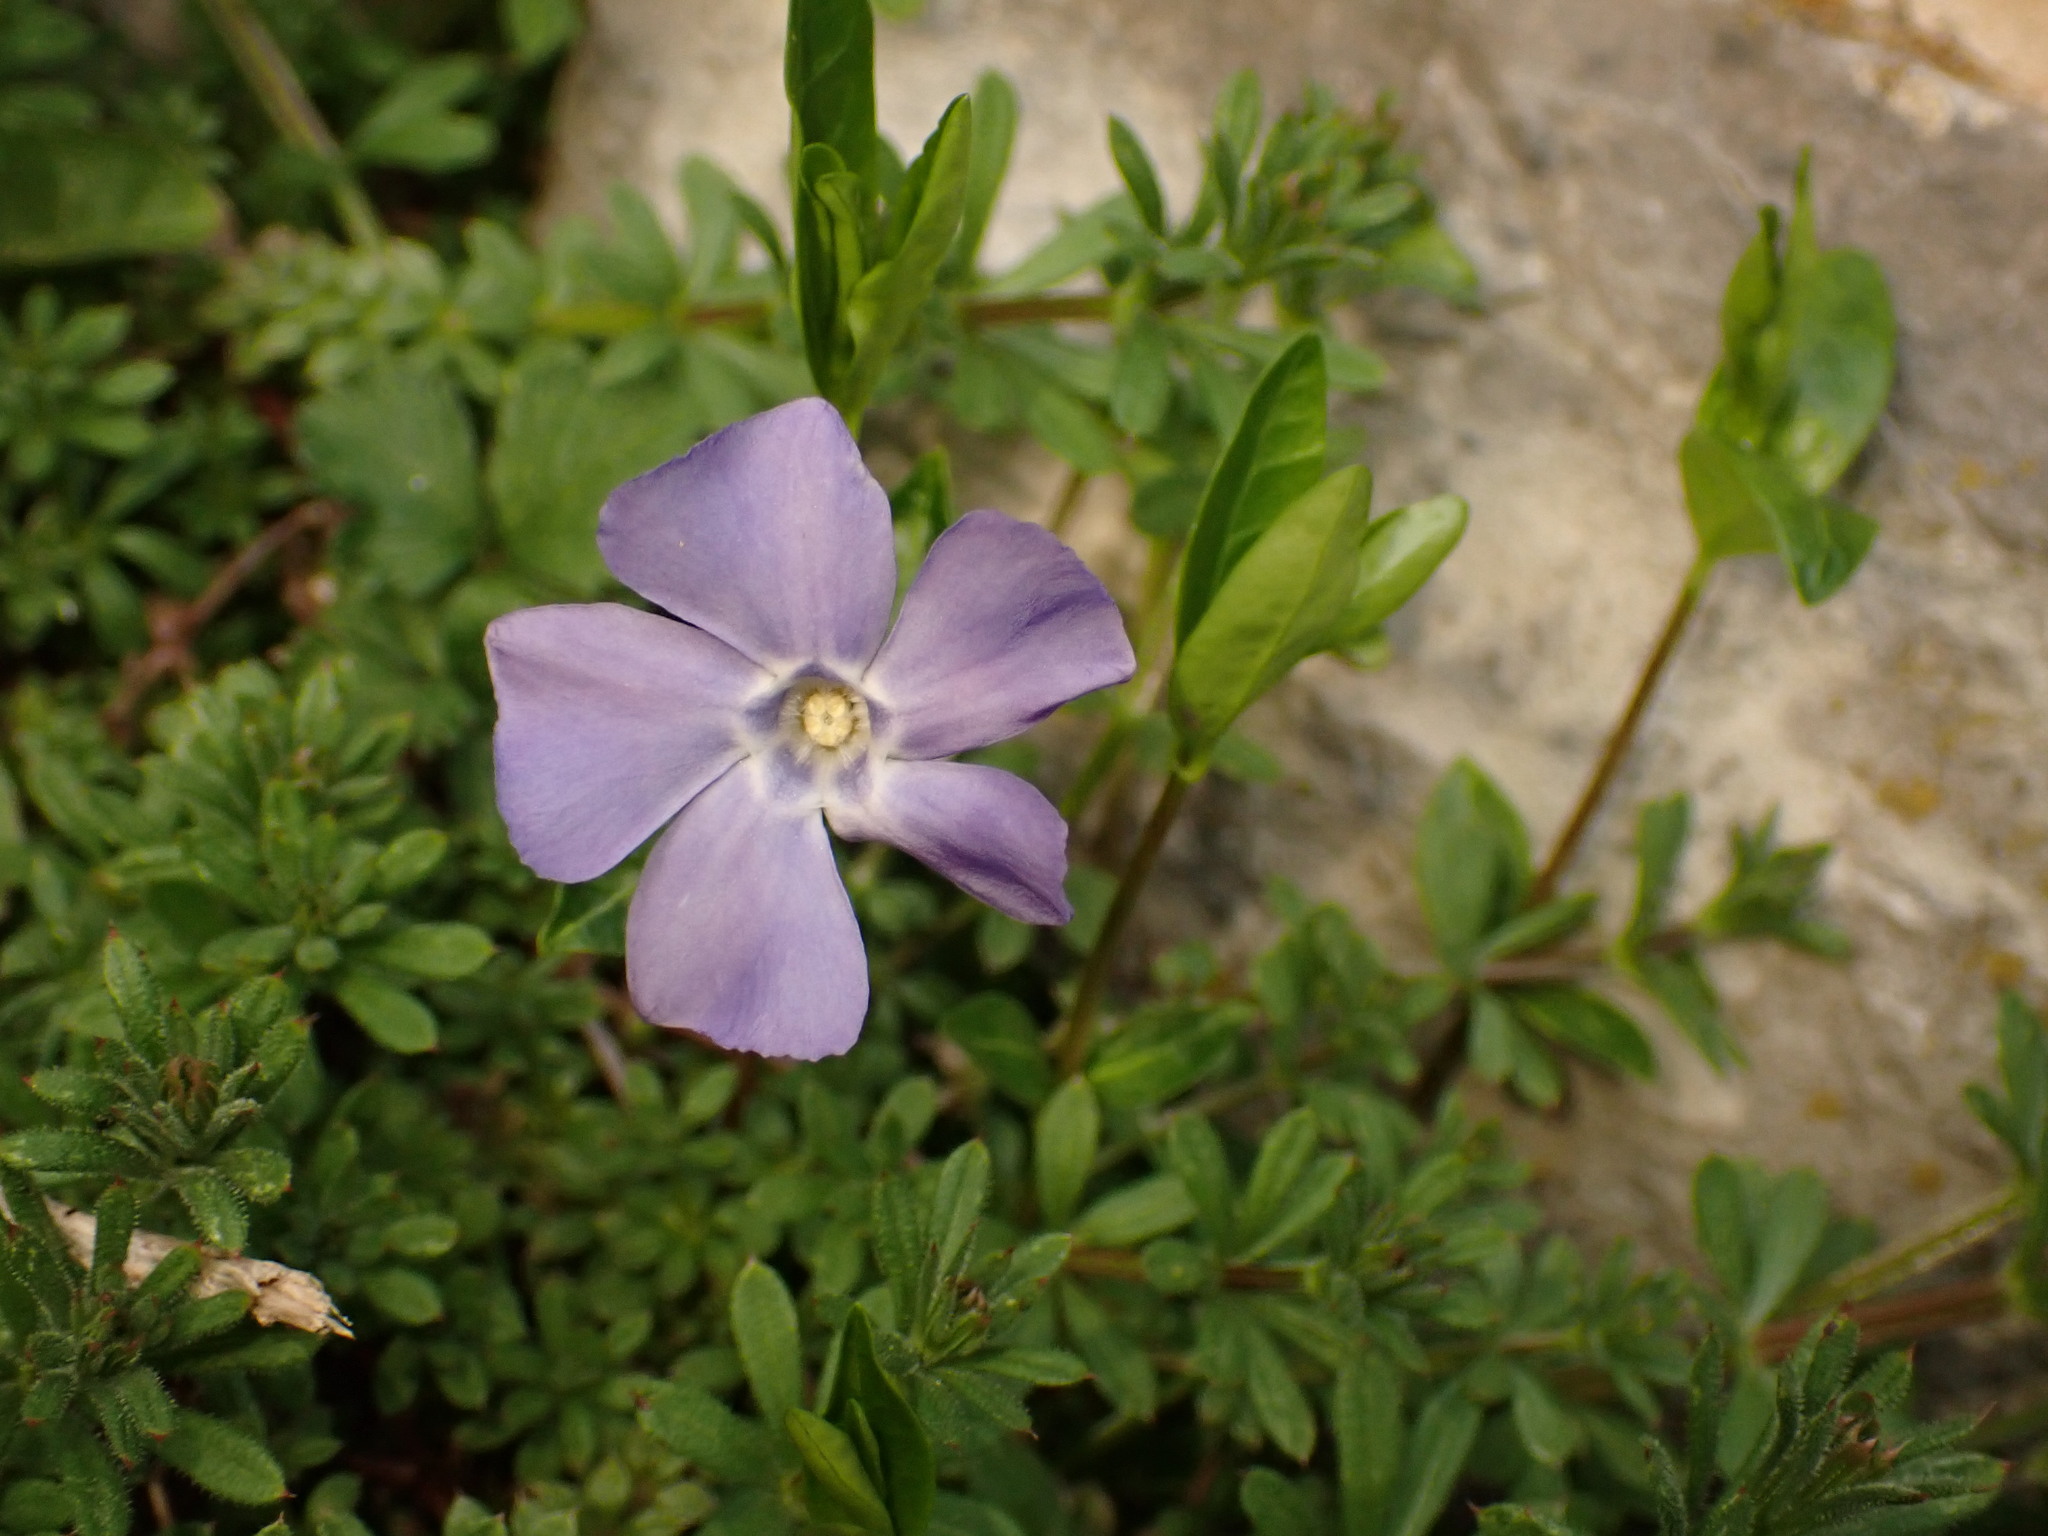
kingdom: Plantae
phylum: Tracheophyta
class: Magnoliopsida
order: Gentianales
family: Apocynaceae
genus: Vinca
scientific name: Vinca minor
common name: Lesser periwinkle
